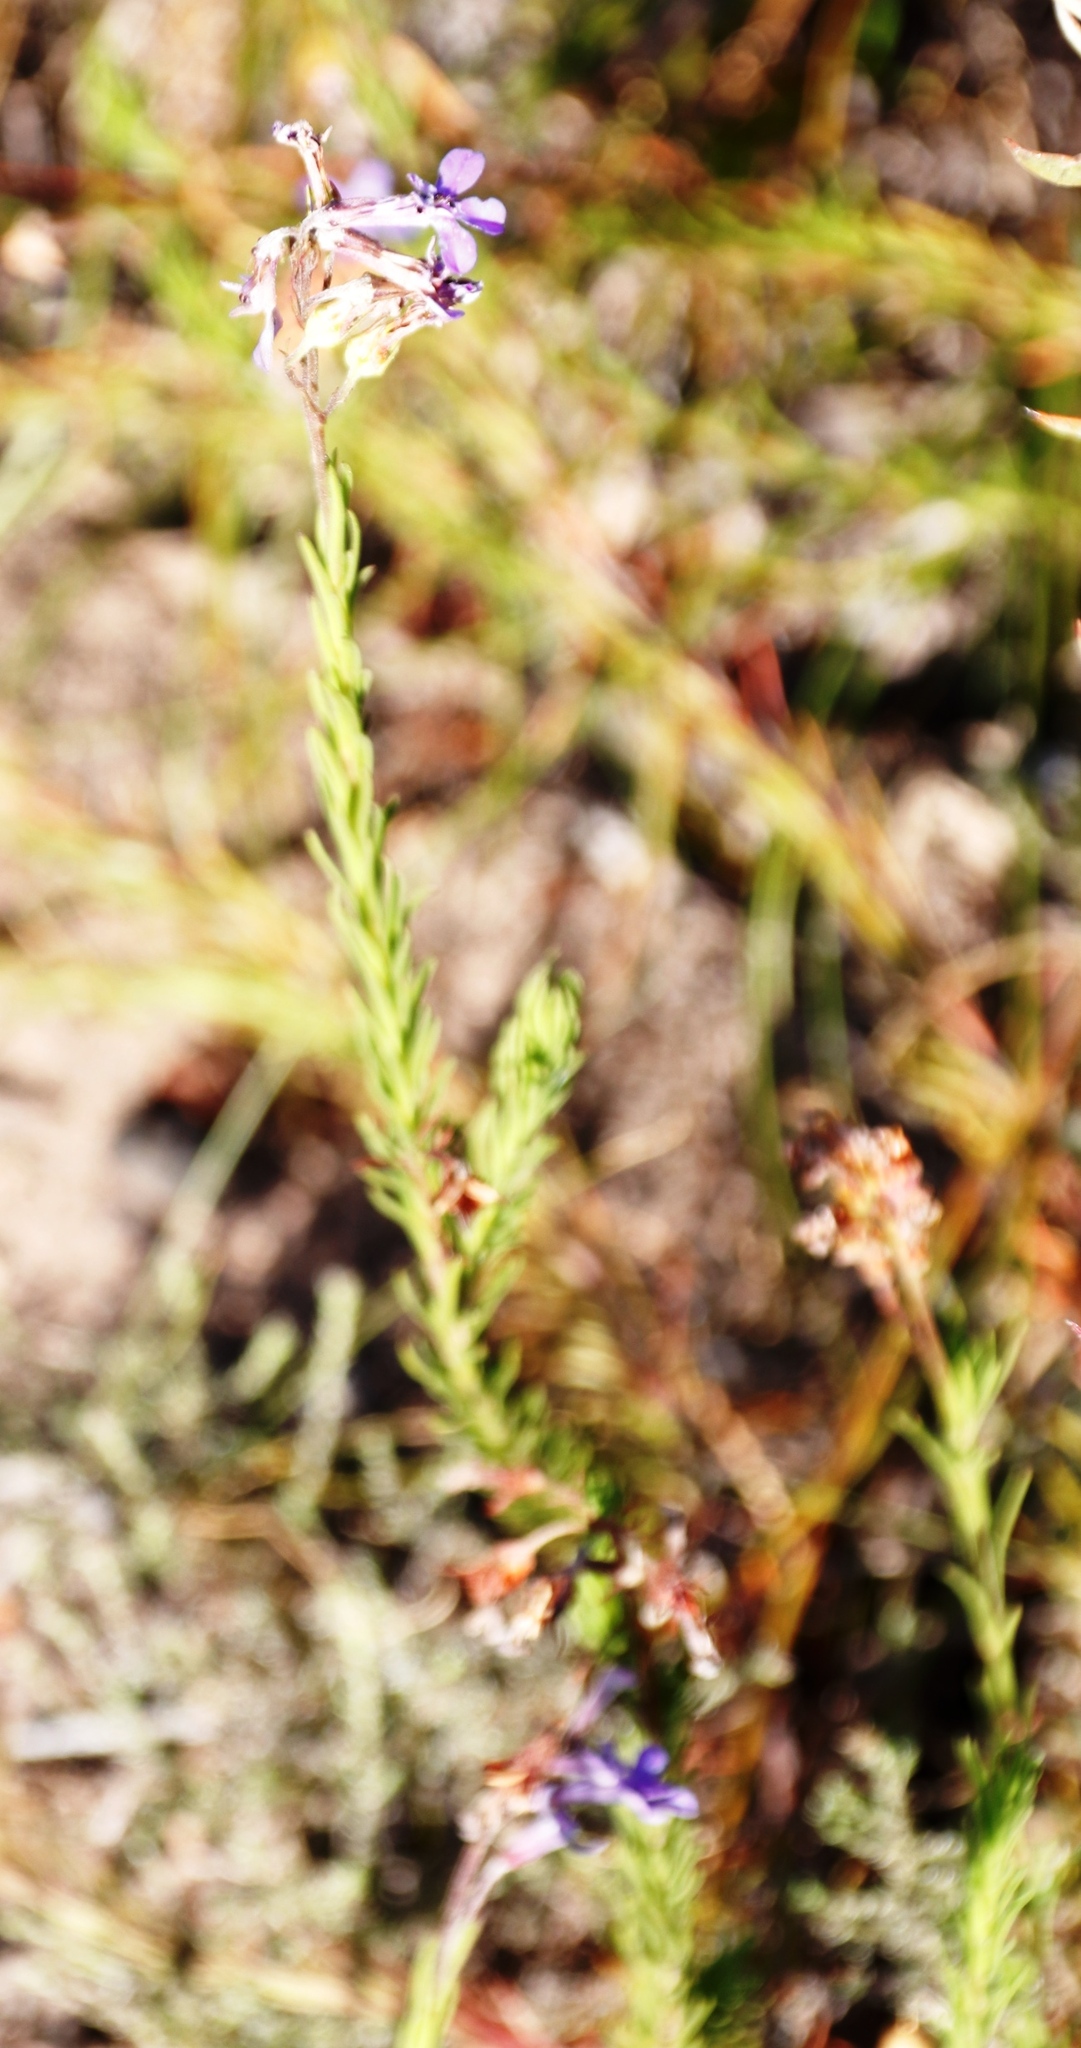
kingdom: Plantae
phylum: Tracheophyta
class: Magnoliopsida
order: Asterales
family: Campanulaceae
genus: Lobelia
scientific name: Lobelia pinifolia
